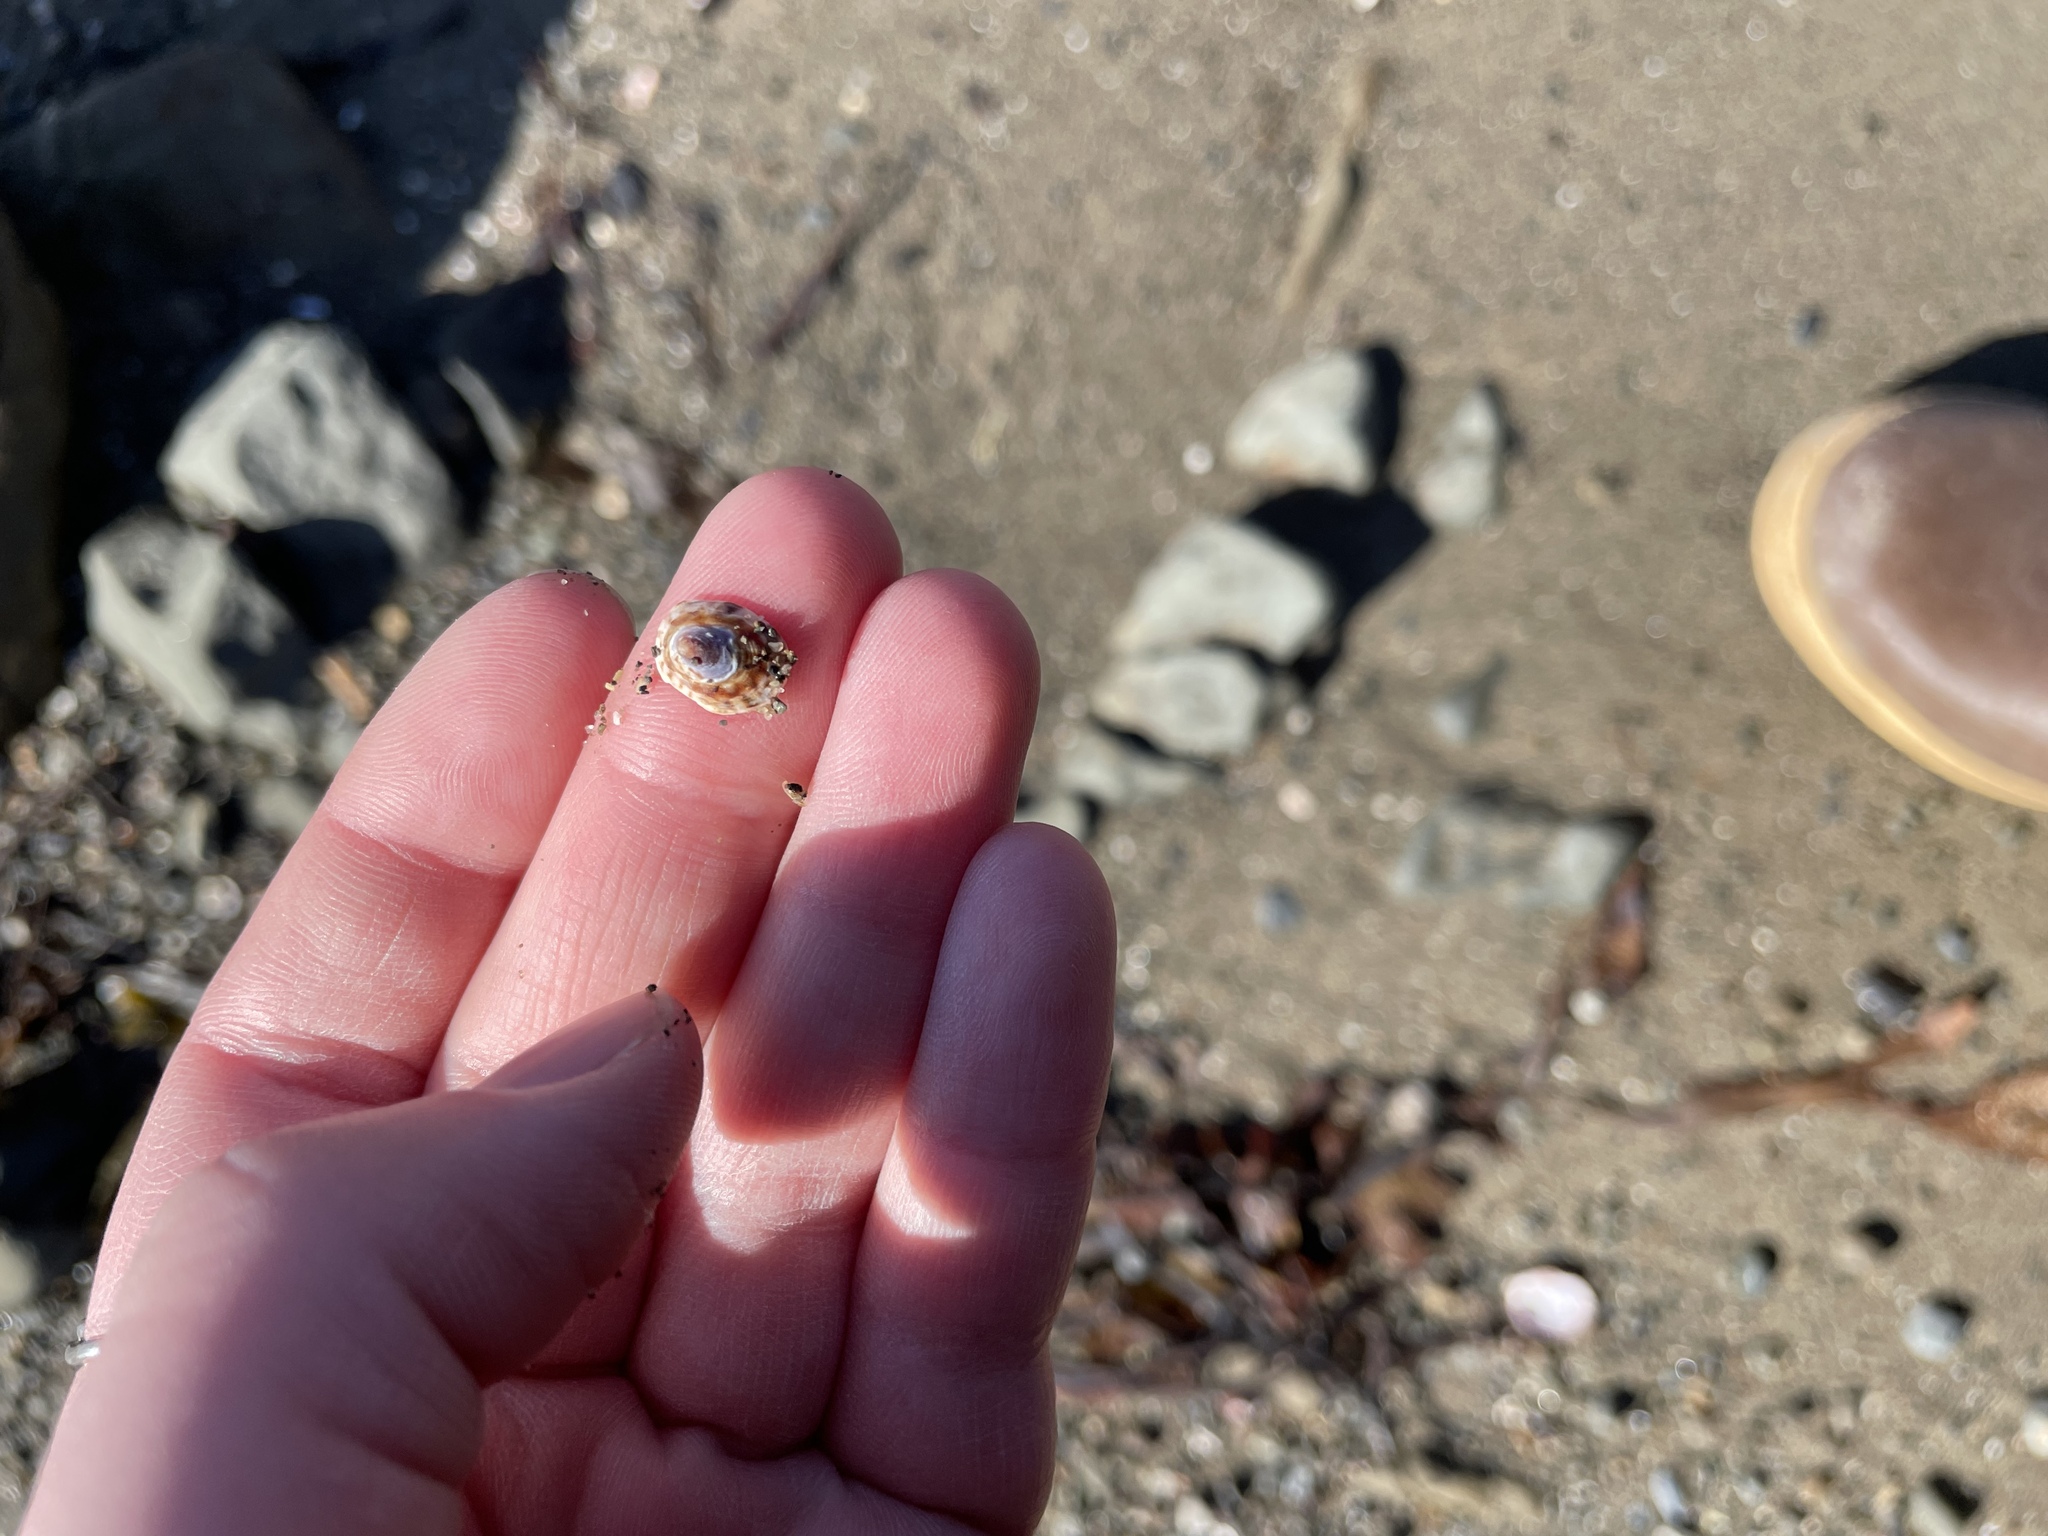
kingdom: Animalia
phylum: Mollusca
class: Gastropoda
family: Lottiidae
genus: Testudinalia
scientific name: Testudinalia testudinalis
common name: Common tortoiseshell limpet
